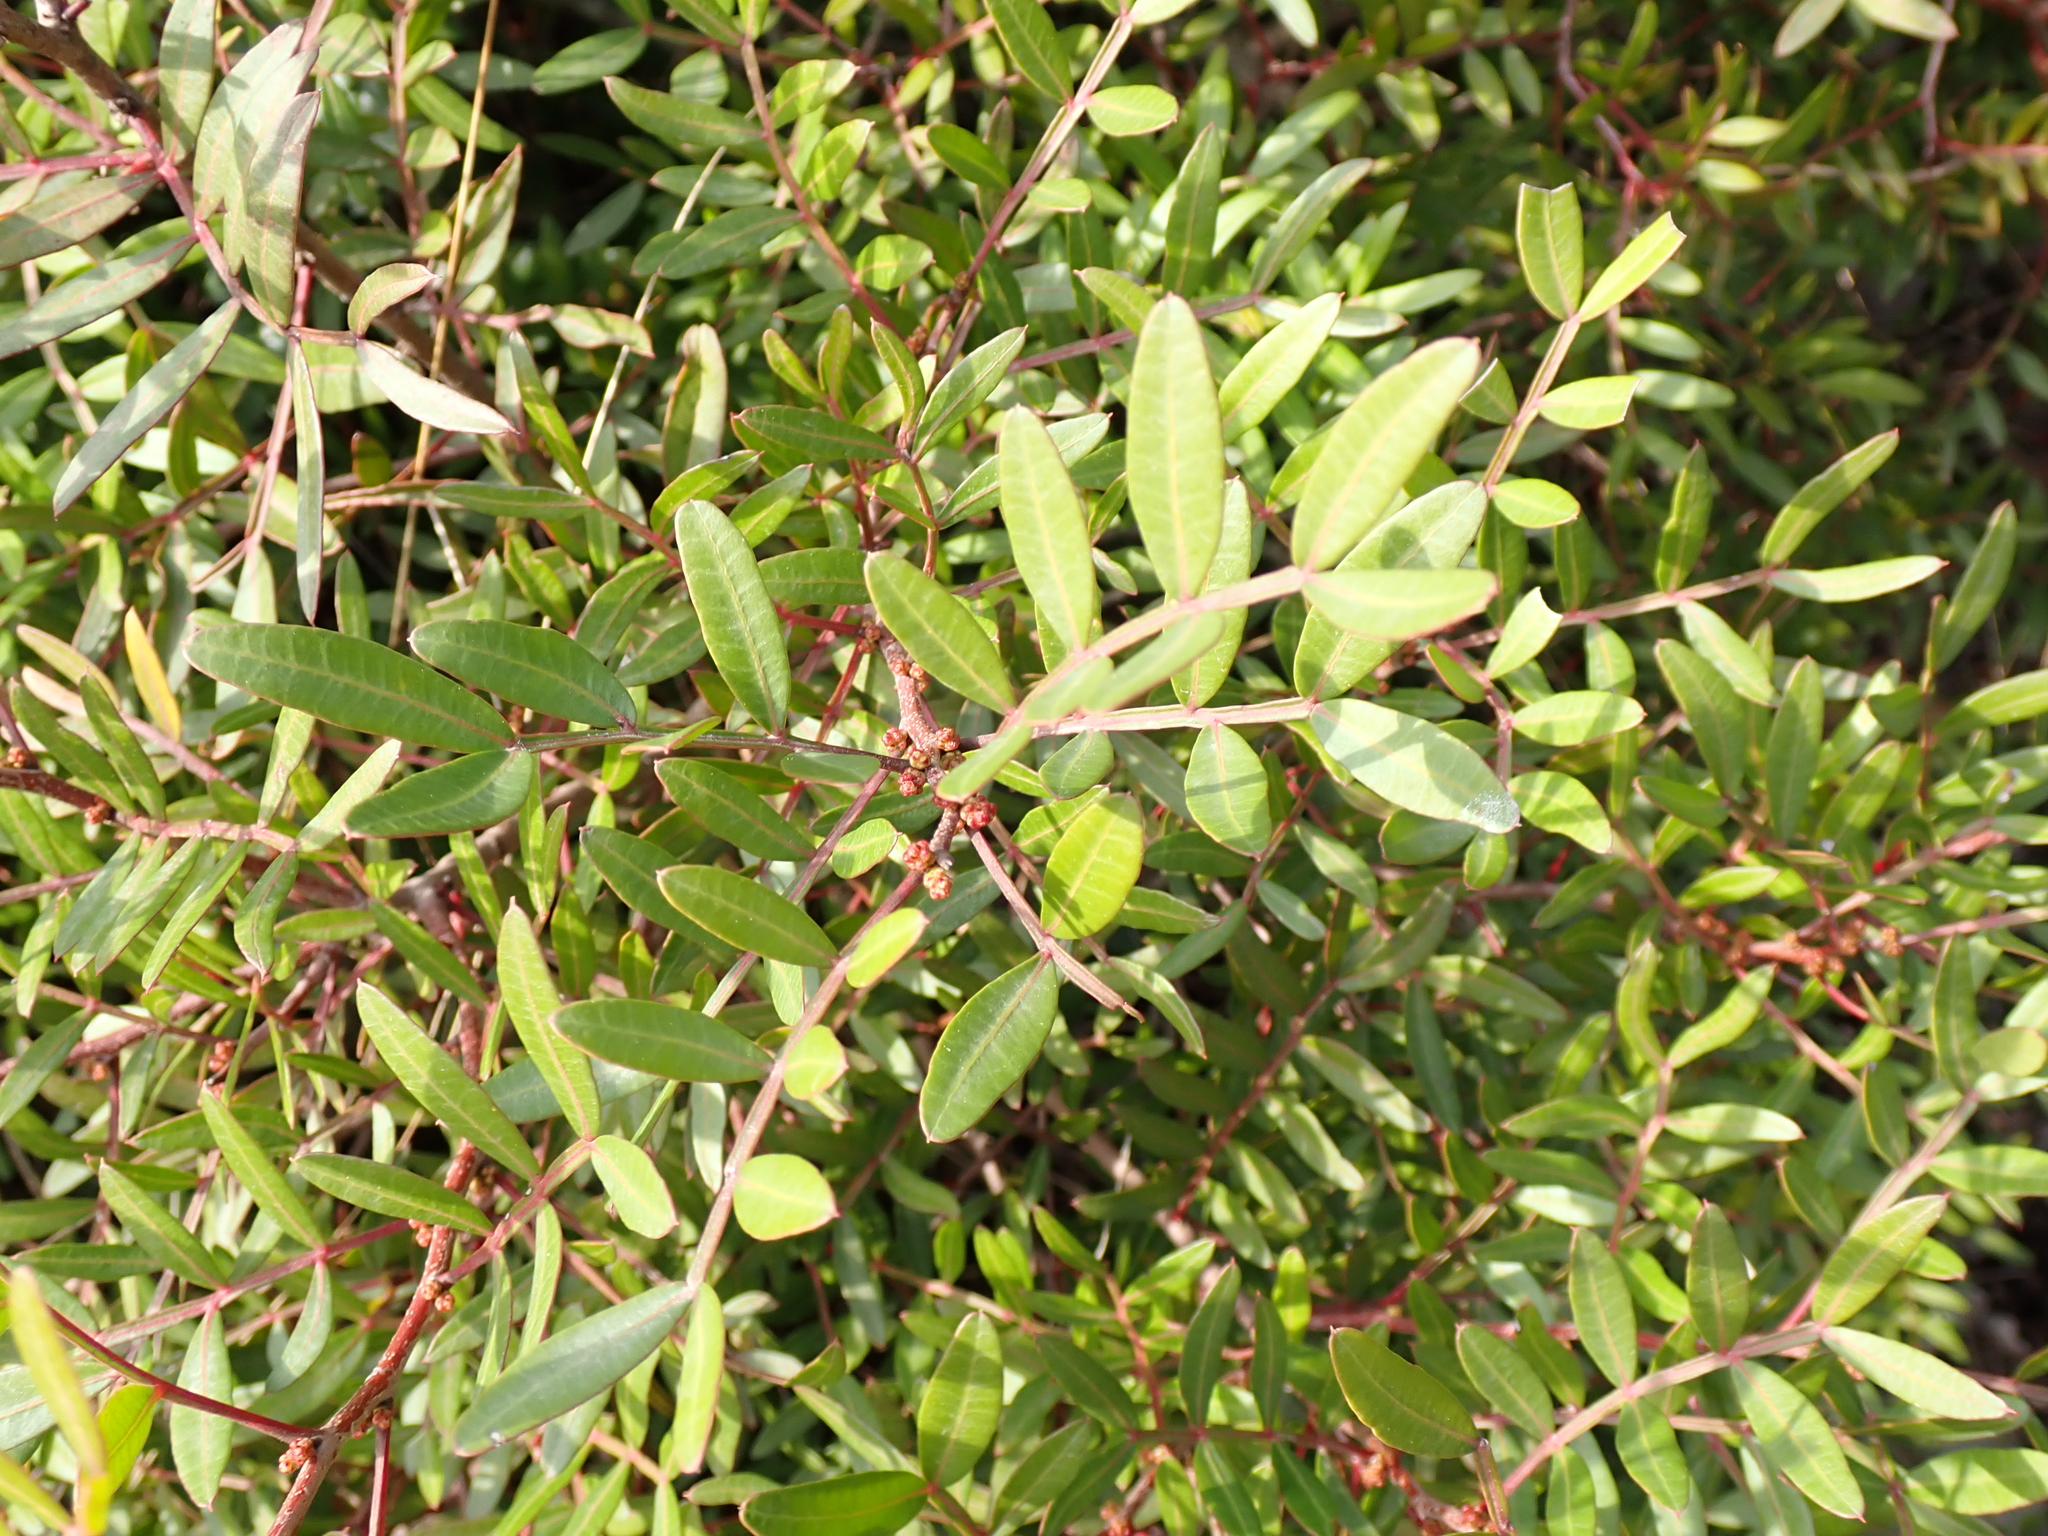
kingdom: Plantae
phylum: Tracheophyta
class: Magnoliopsida
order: Sapindales
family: Anacardiaceae
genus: Pistacia
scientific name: Pistacia lentiscus
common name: Lentisk
